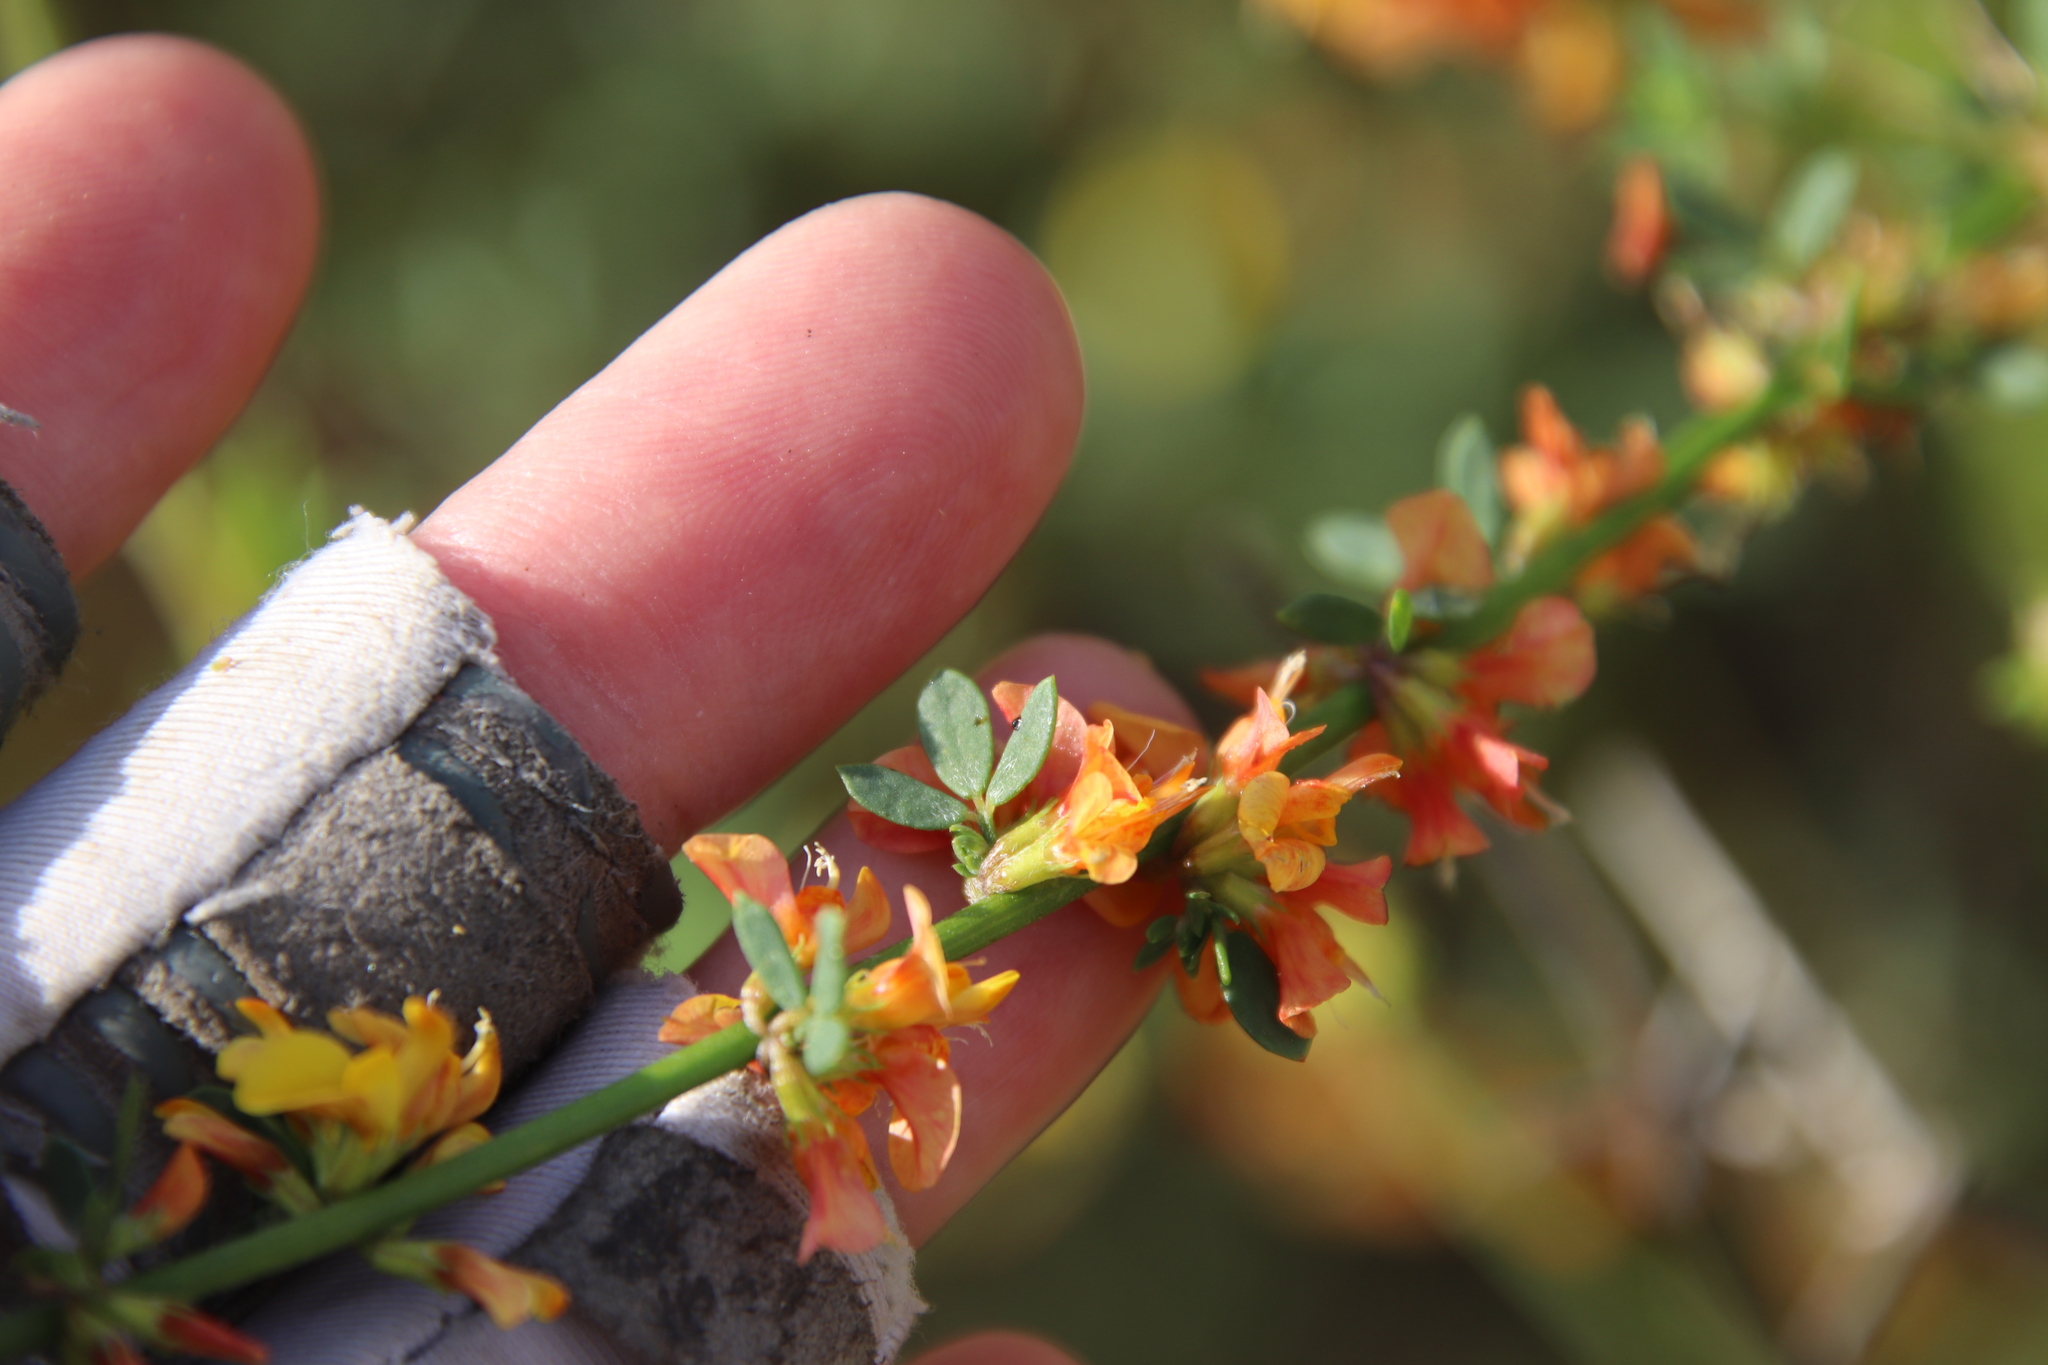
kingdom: Plantae
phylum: Tracheophyta
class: Magnoliopsida
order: Fabales
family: Fabaceae
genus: Acmispon
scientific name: Acmispon glaber
